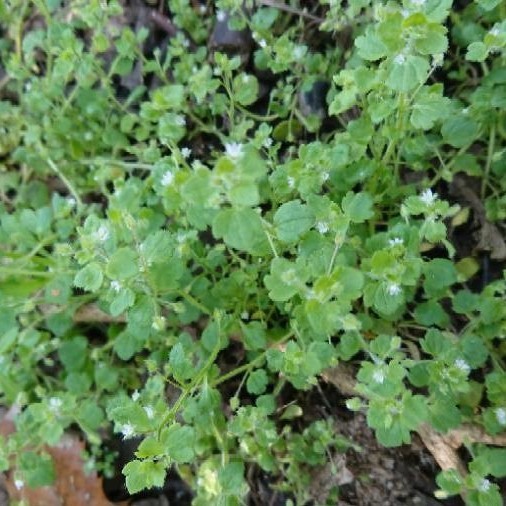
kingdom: Plantae
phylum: Tracheophyta
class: Magnoliopsida
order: Lamiales
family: Plantaginaceae
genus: Veronica
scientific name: Veronica hederifolia
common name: Ivy-leaved speedwell
